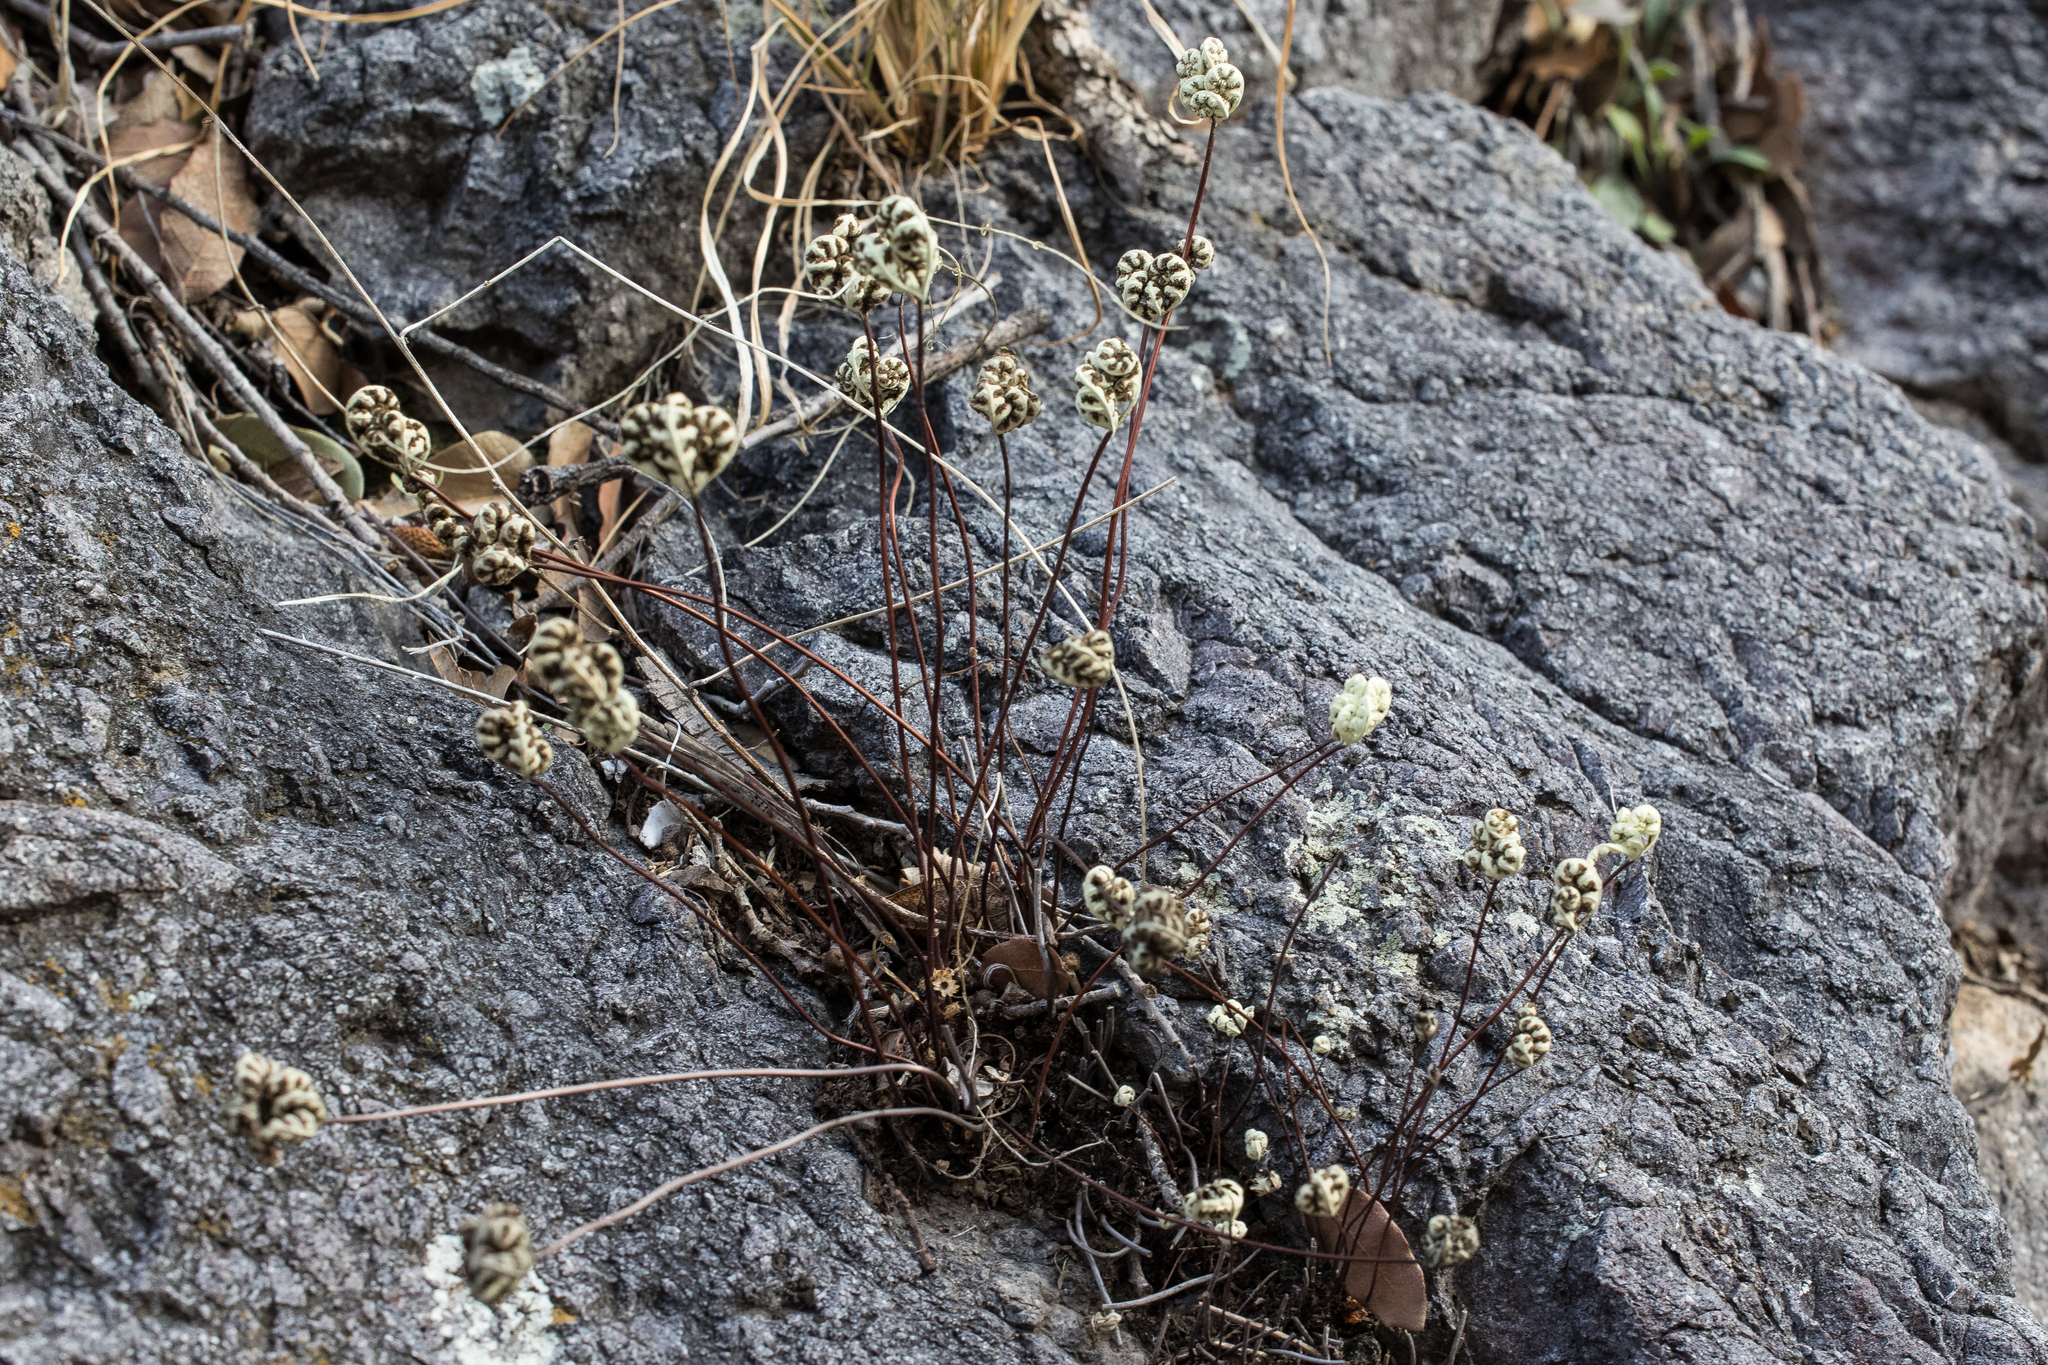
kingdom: Plantae
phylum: Tracheophyta
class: Polypodiopsida
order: Polypodiales
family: Pteridaceae
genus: Notholaena
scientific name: Notholaena standleyi
